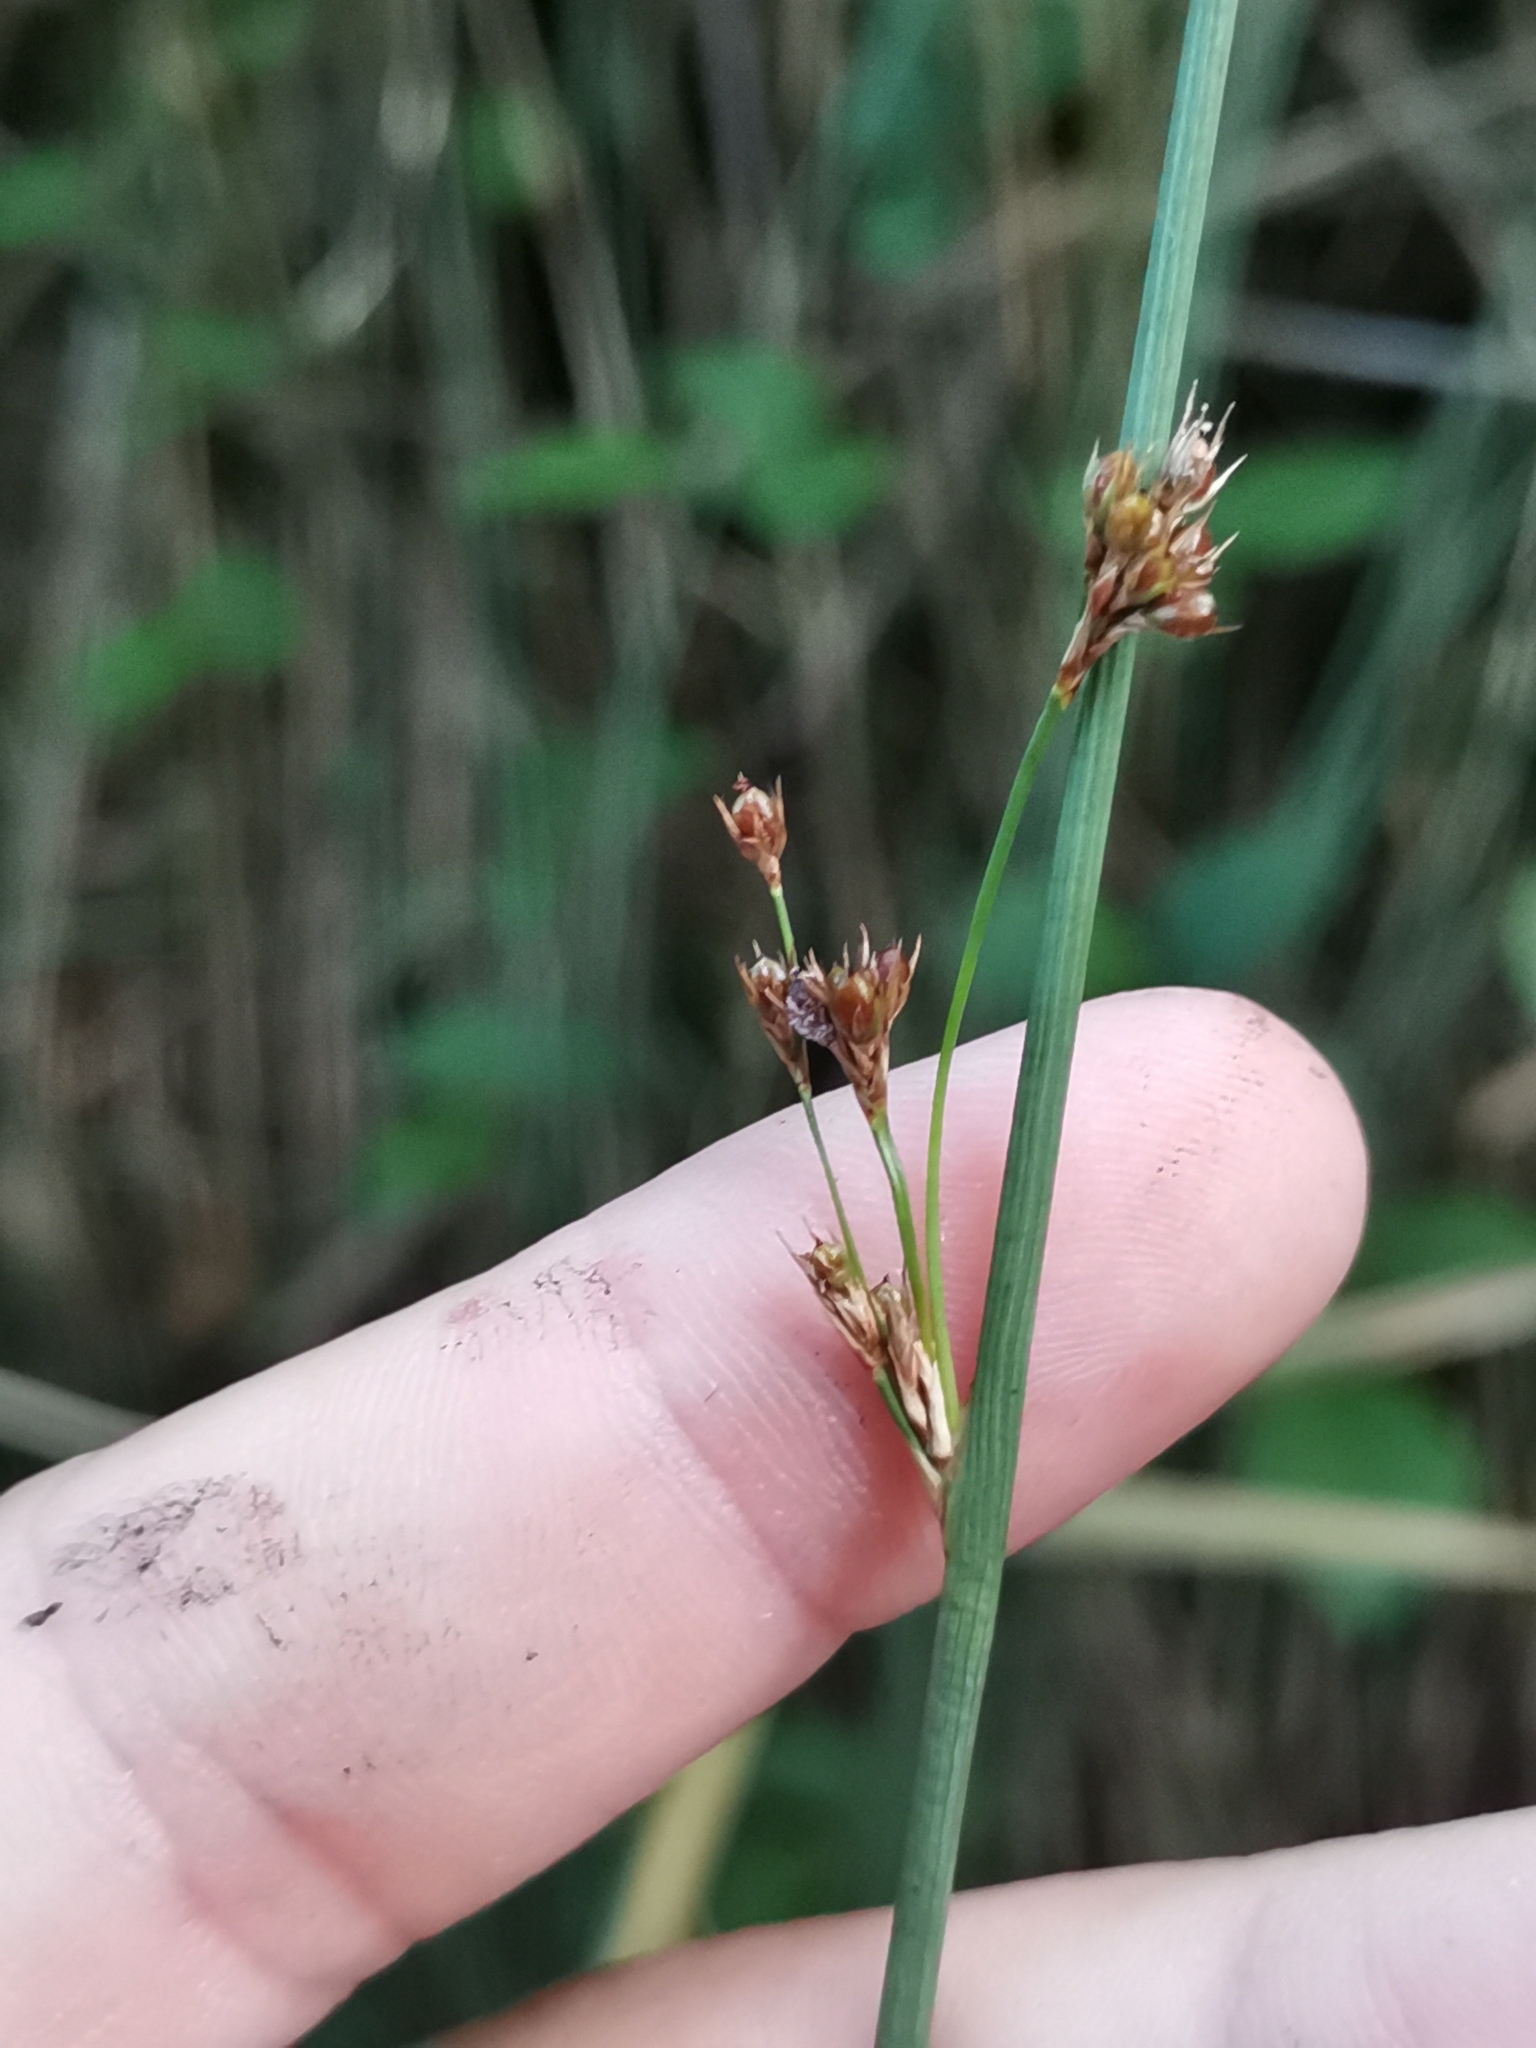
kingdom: Plantae
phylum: Tracheophyta
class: Liliopsida
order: Poales
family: Juncaceae
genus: Juncus
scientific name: Juncus inflexus
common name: Hard rush
